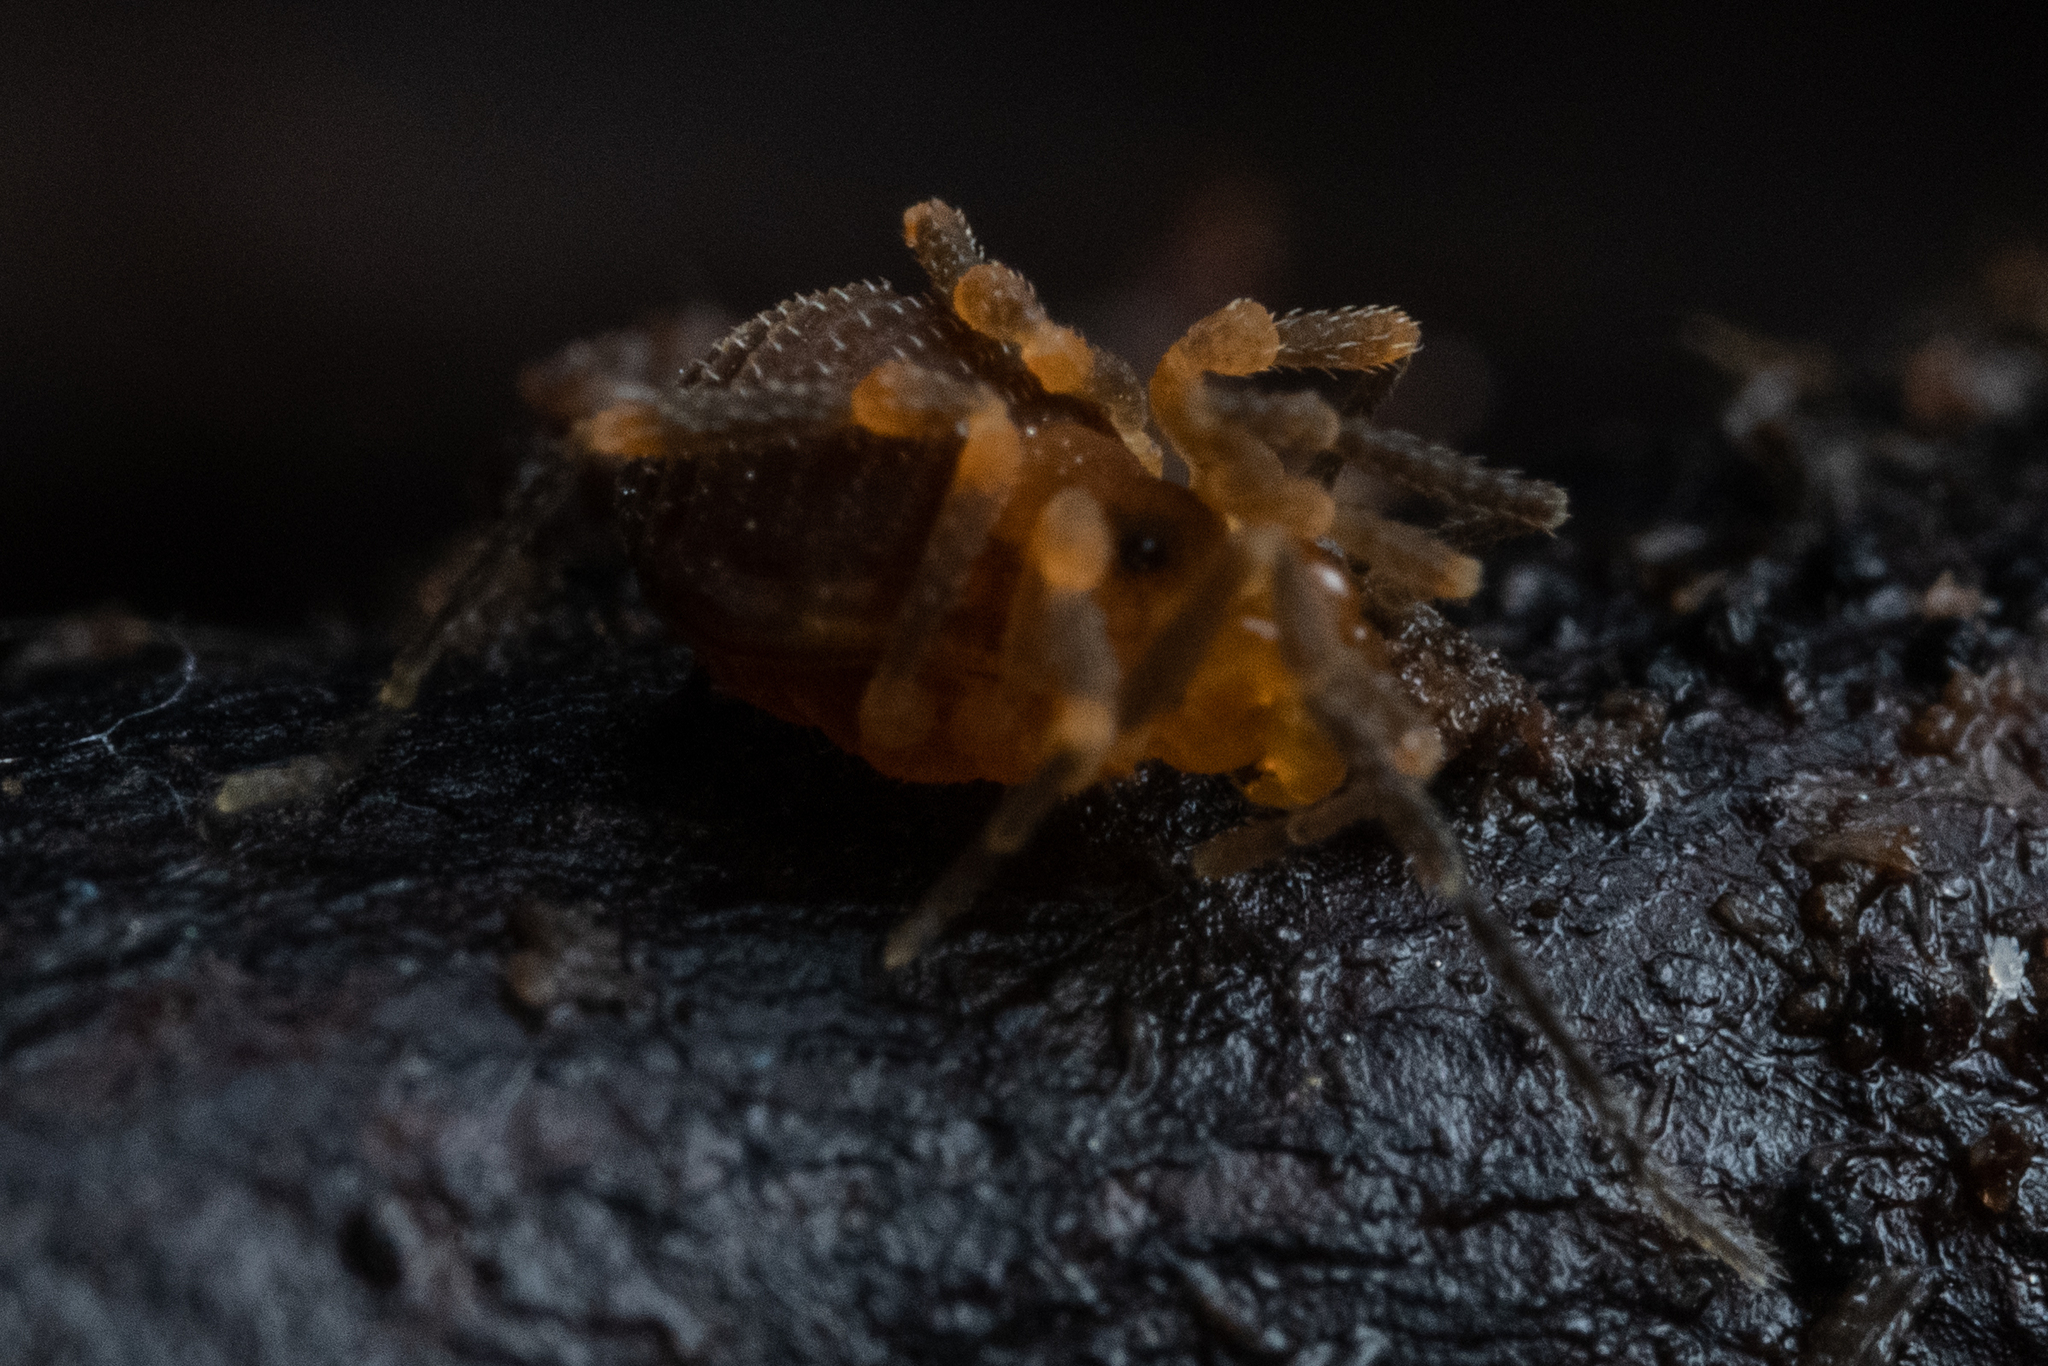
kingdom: Animalia
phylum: Arthropoda
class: Arachnida
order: Opiliones
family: Paranonychidae
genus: Paranonychus
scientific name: Paranonychus brunneus
